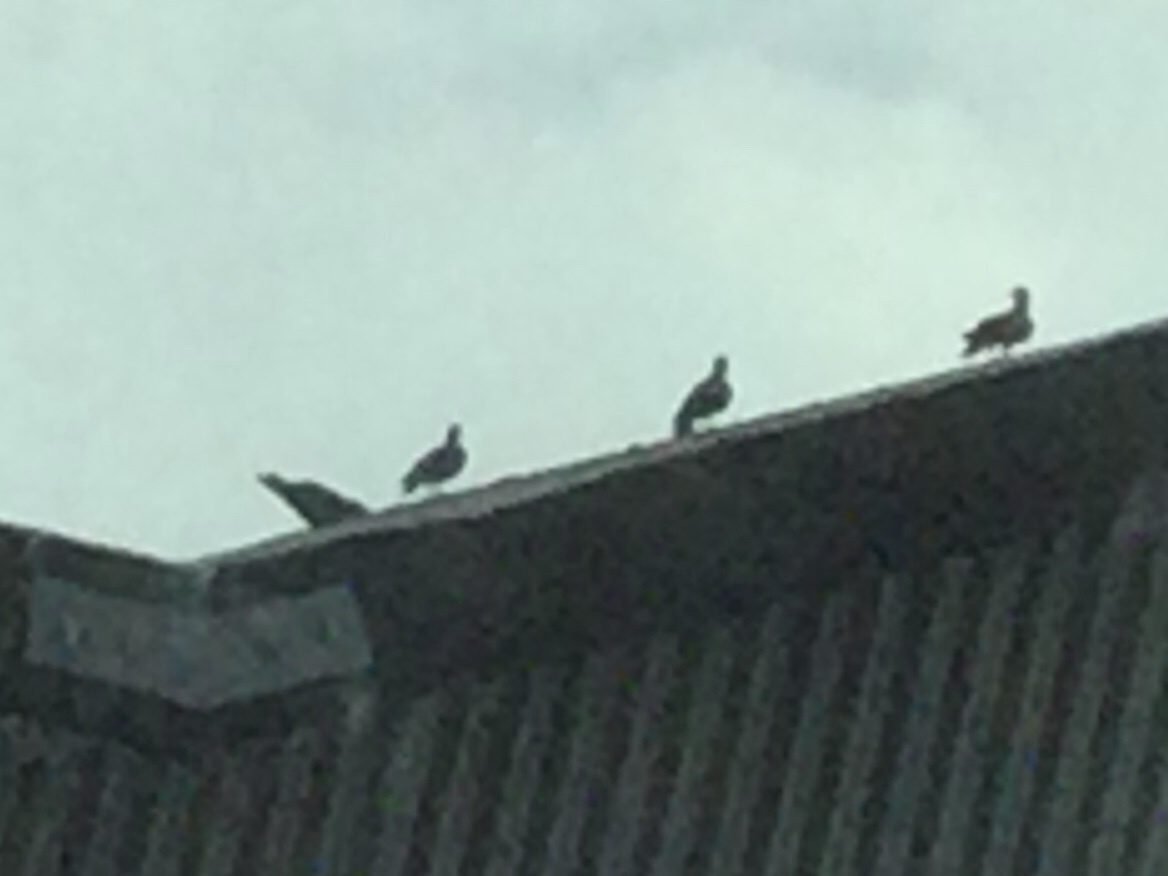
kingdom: Animalia
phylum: Chordata
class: Aves
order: Columbiformes
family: Columbidae
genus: Columba
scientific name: Columba livia
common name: Rock pigeon
